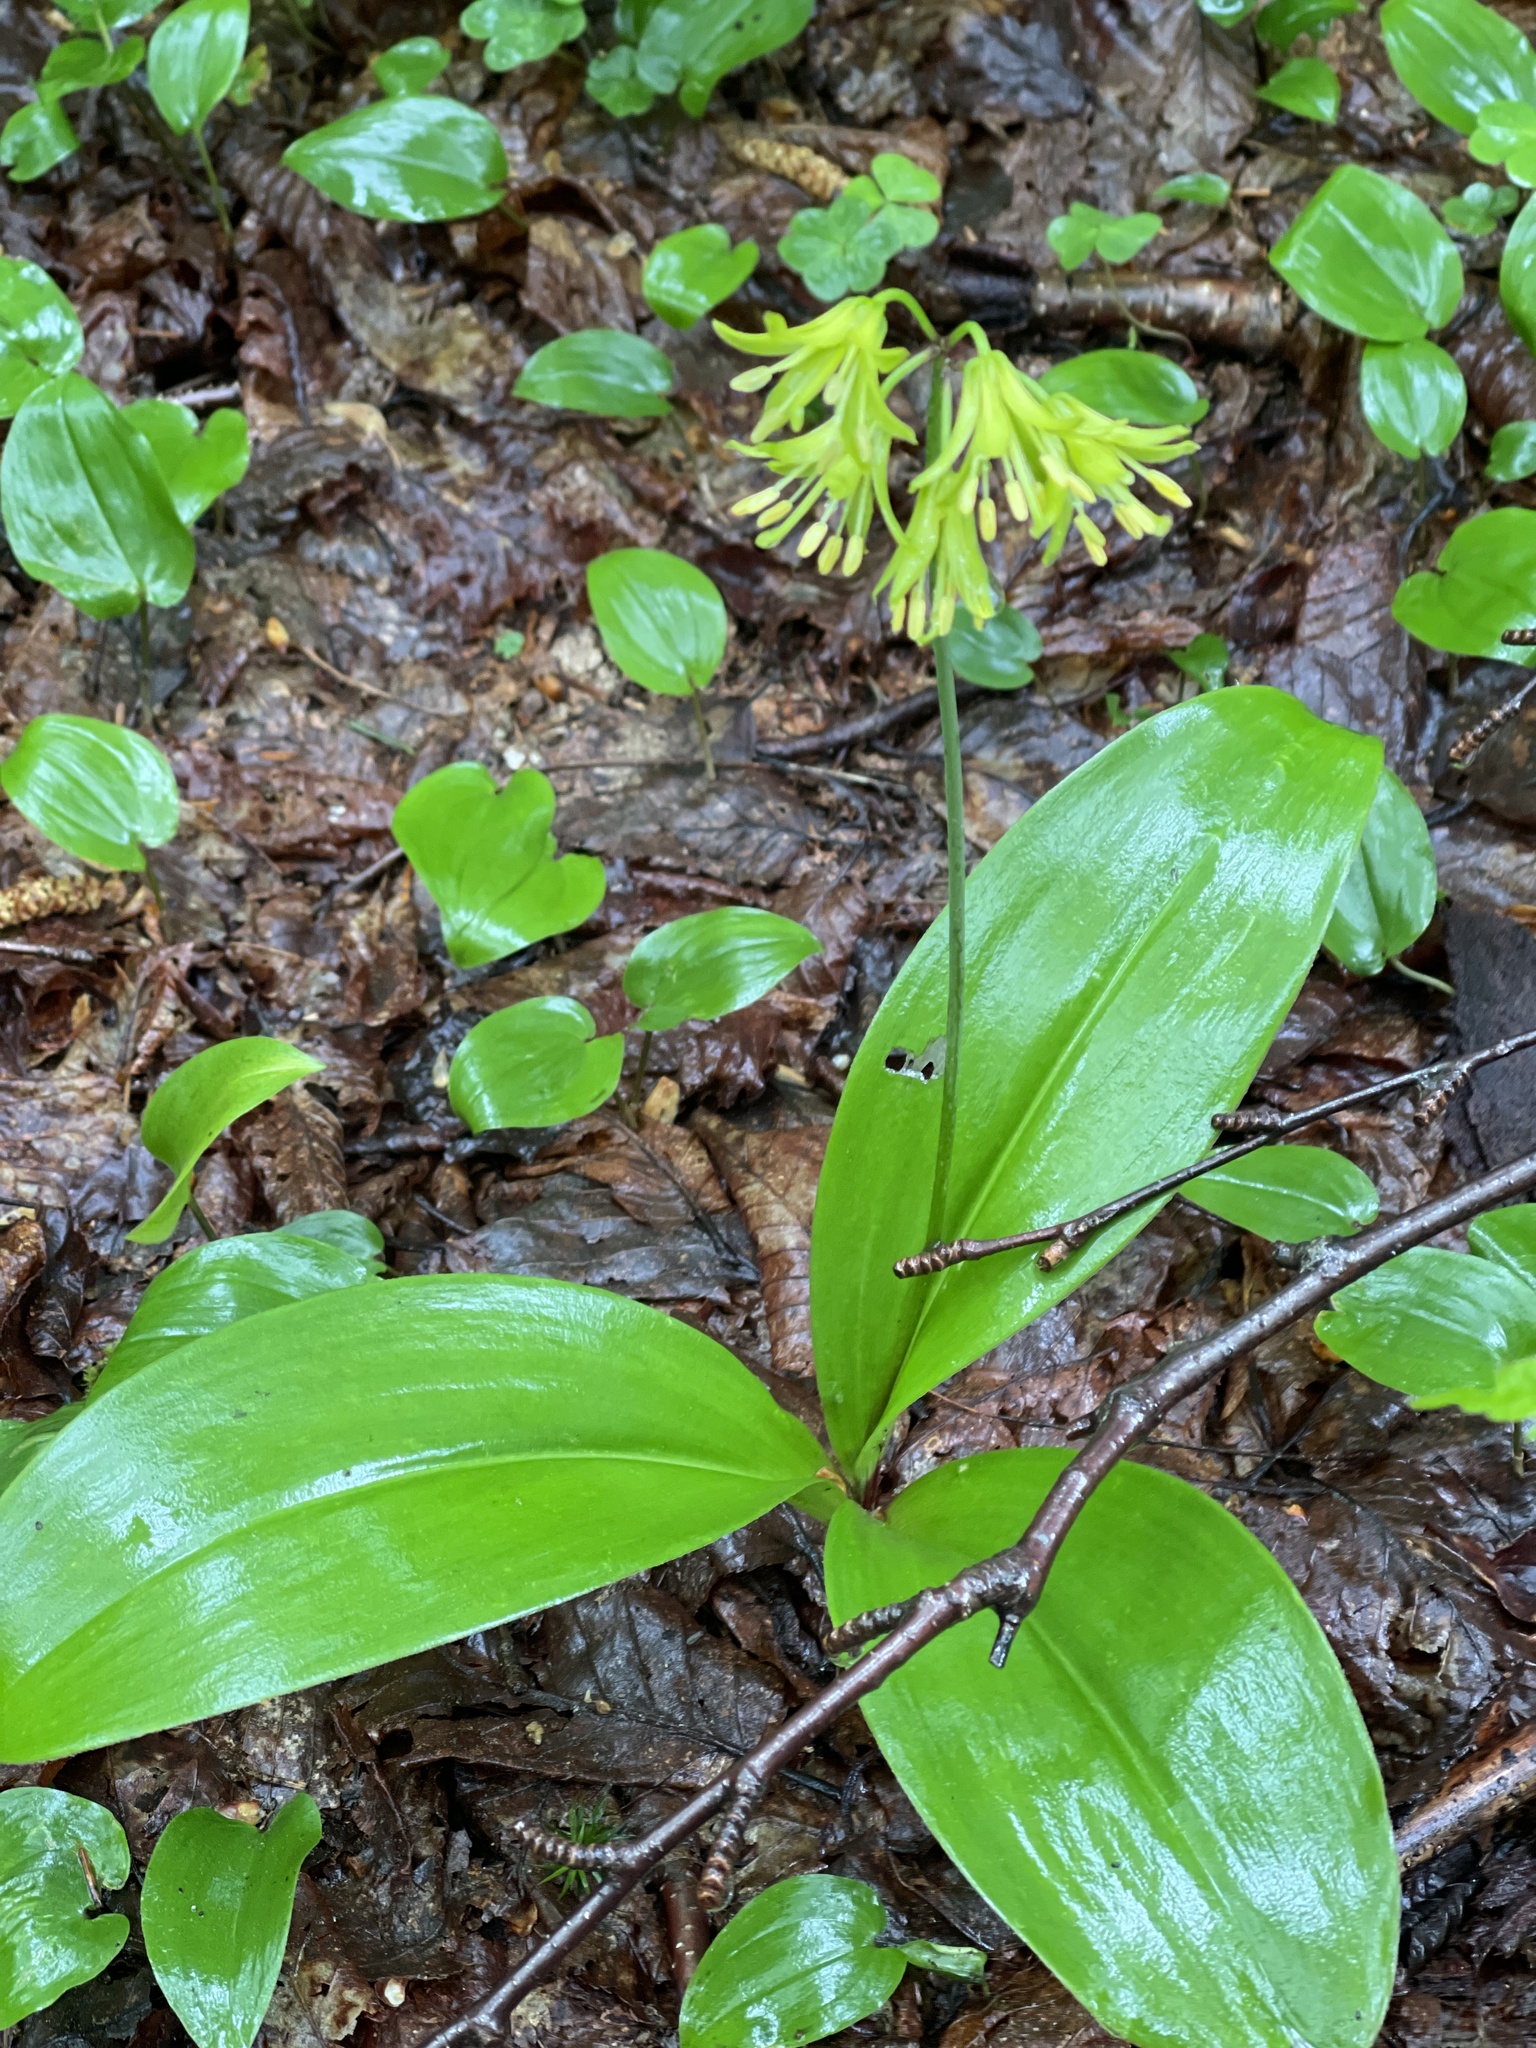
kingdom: Plantae
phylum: Tracheophyta
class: Liliopsida
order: Liliales
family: Liliaceae
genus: Clintonia
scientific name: Clintonia borealis
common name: Yellow clintonia
